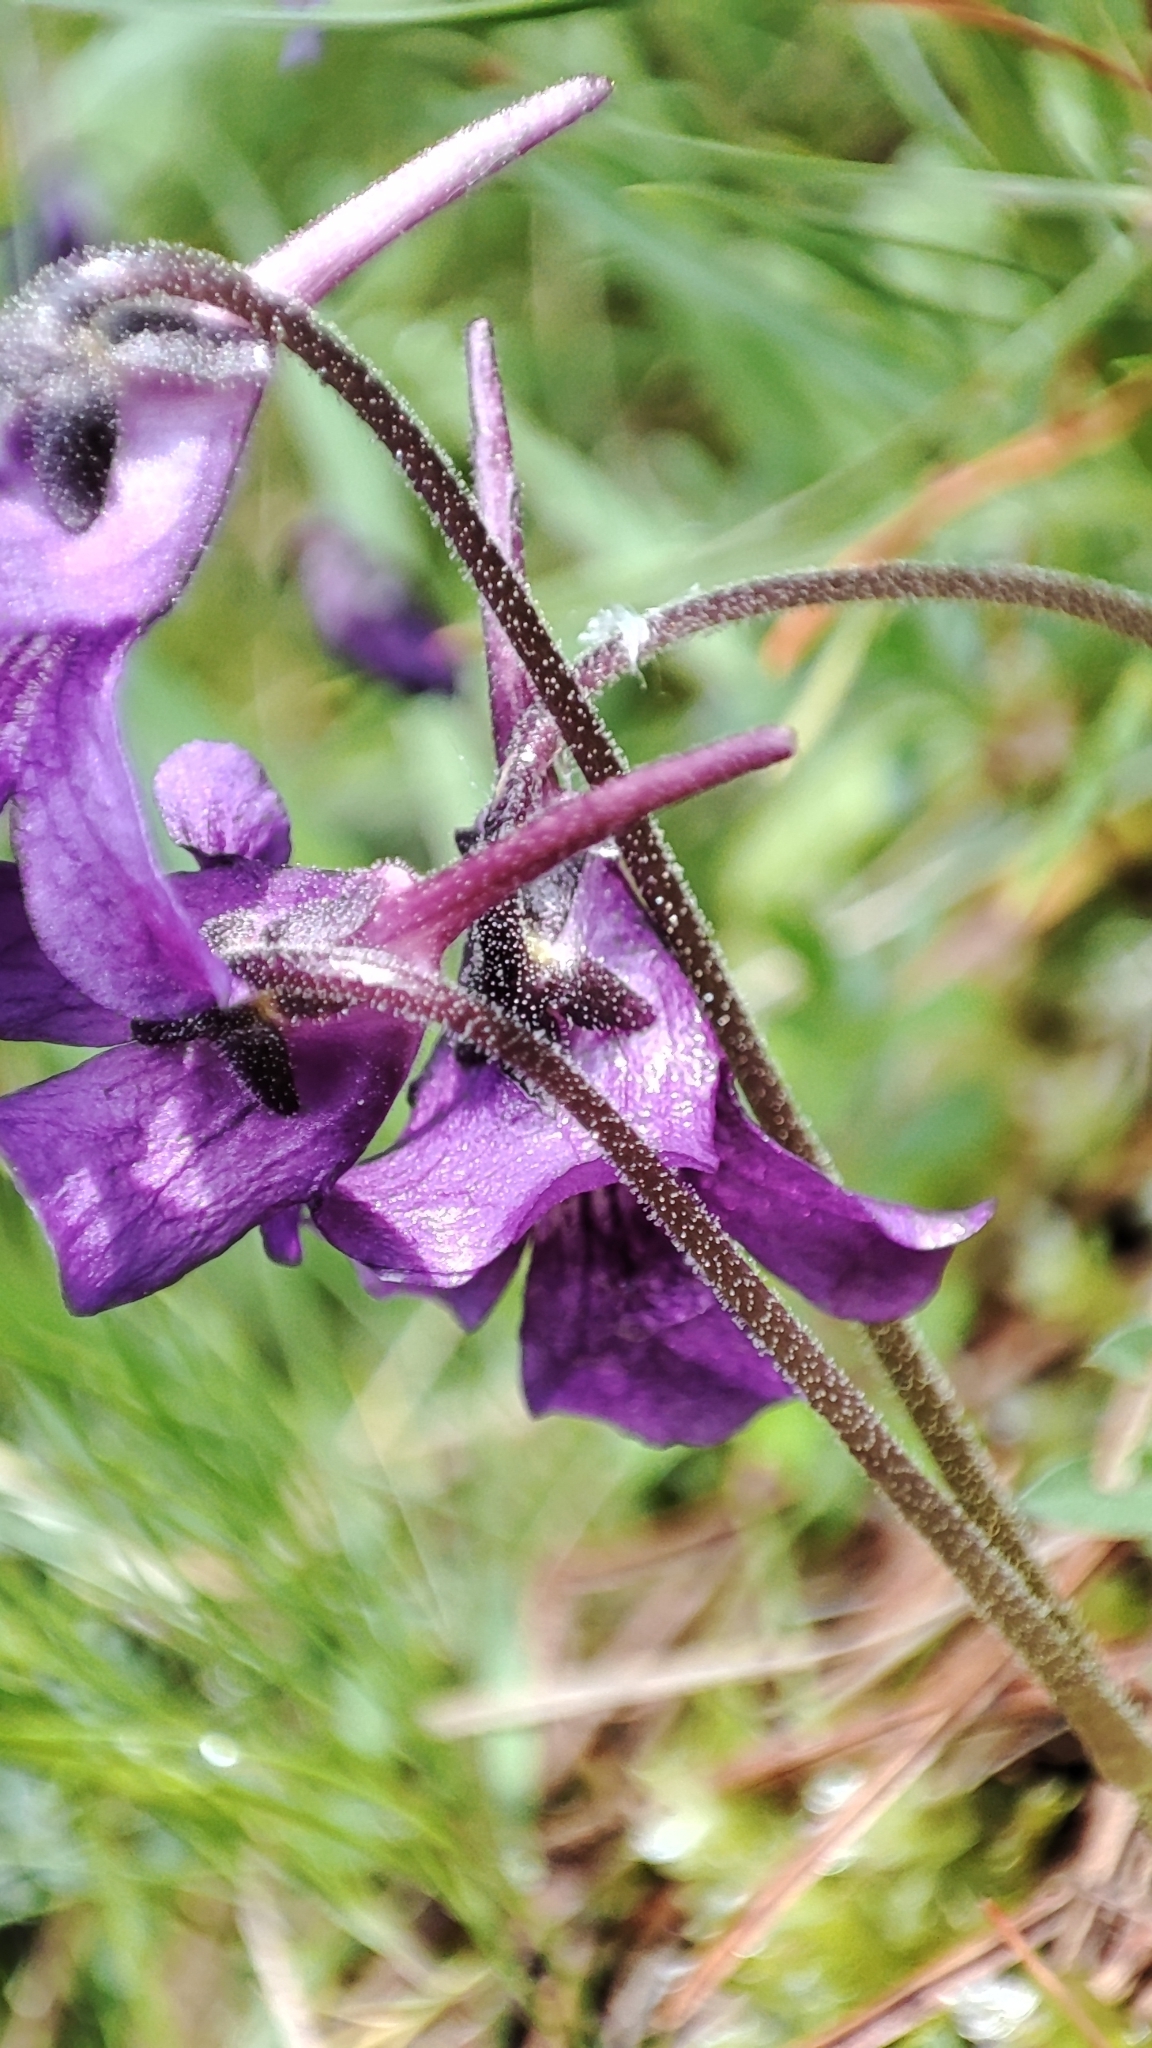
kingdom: Plantae
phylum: Tracheophyta
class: Magnoliopsida
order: Lamiales
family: Lentibulariaceae
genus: Pinguicula
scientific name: Pinguicula grandiflora
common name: Large-flowered butterwort
